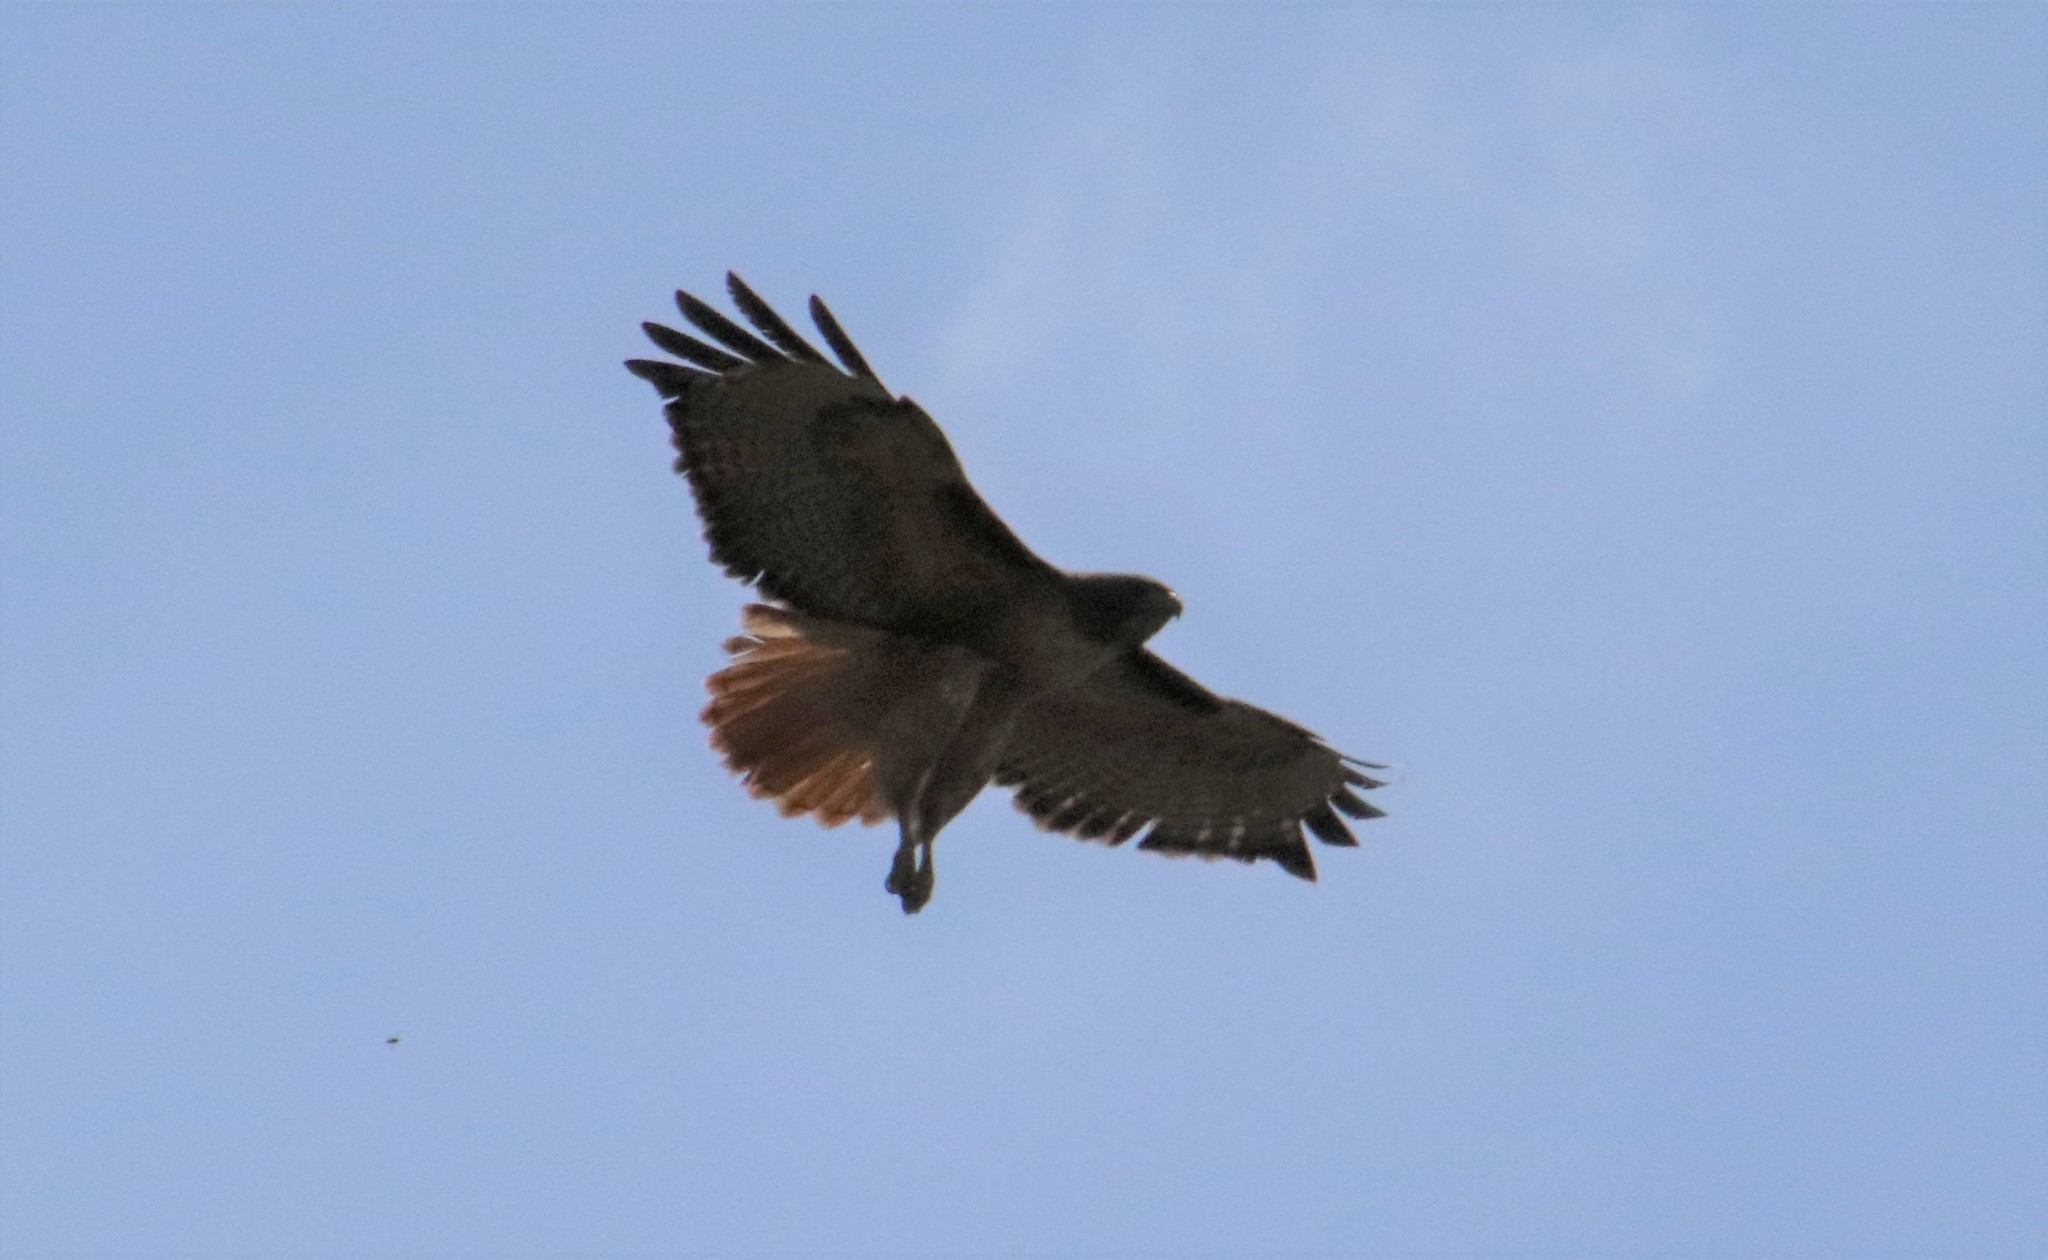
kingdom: Animalia
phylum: Chordata
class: Aves
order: Accipitriformes
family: Accipitridae
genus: Buteo
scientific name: Buteo jamaicensis
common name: Red-tailed hawk
